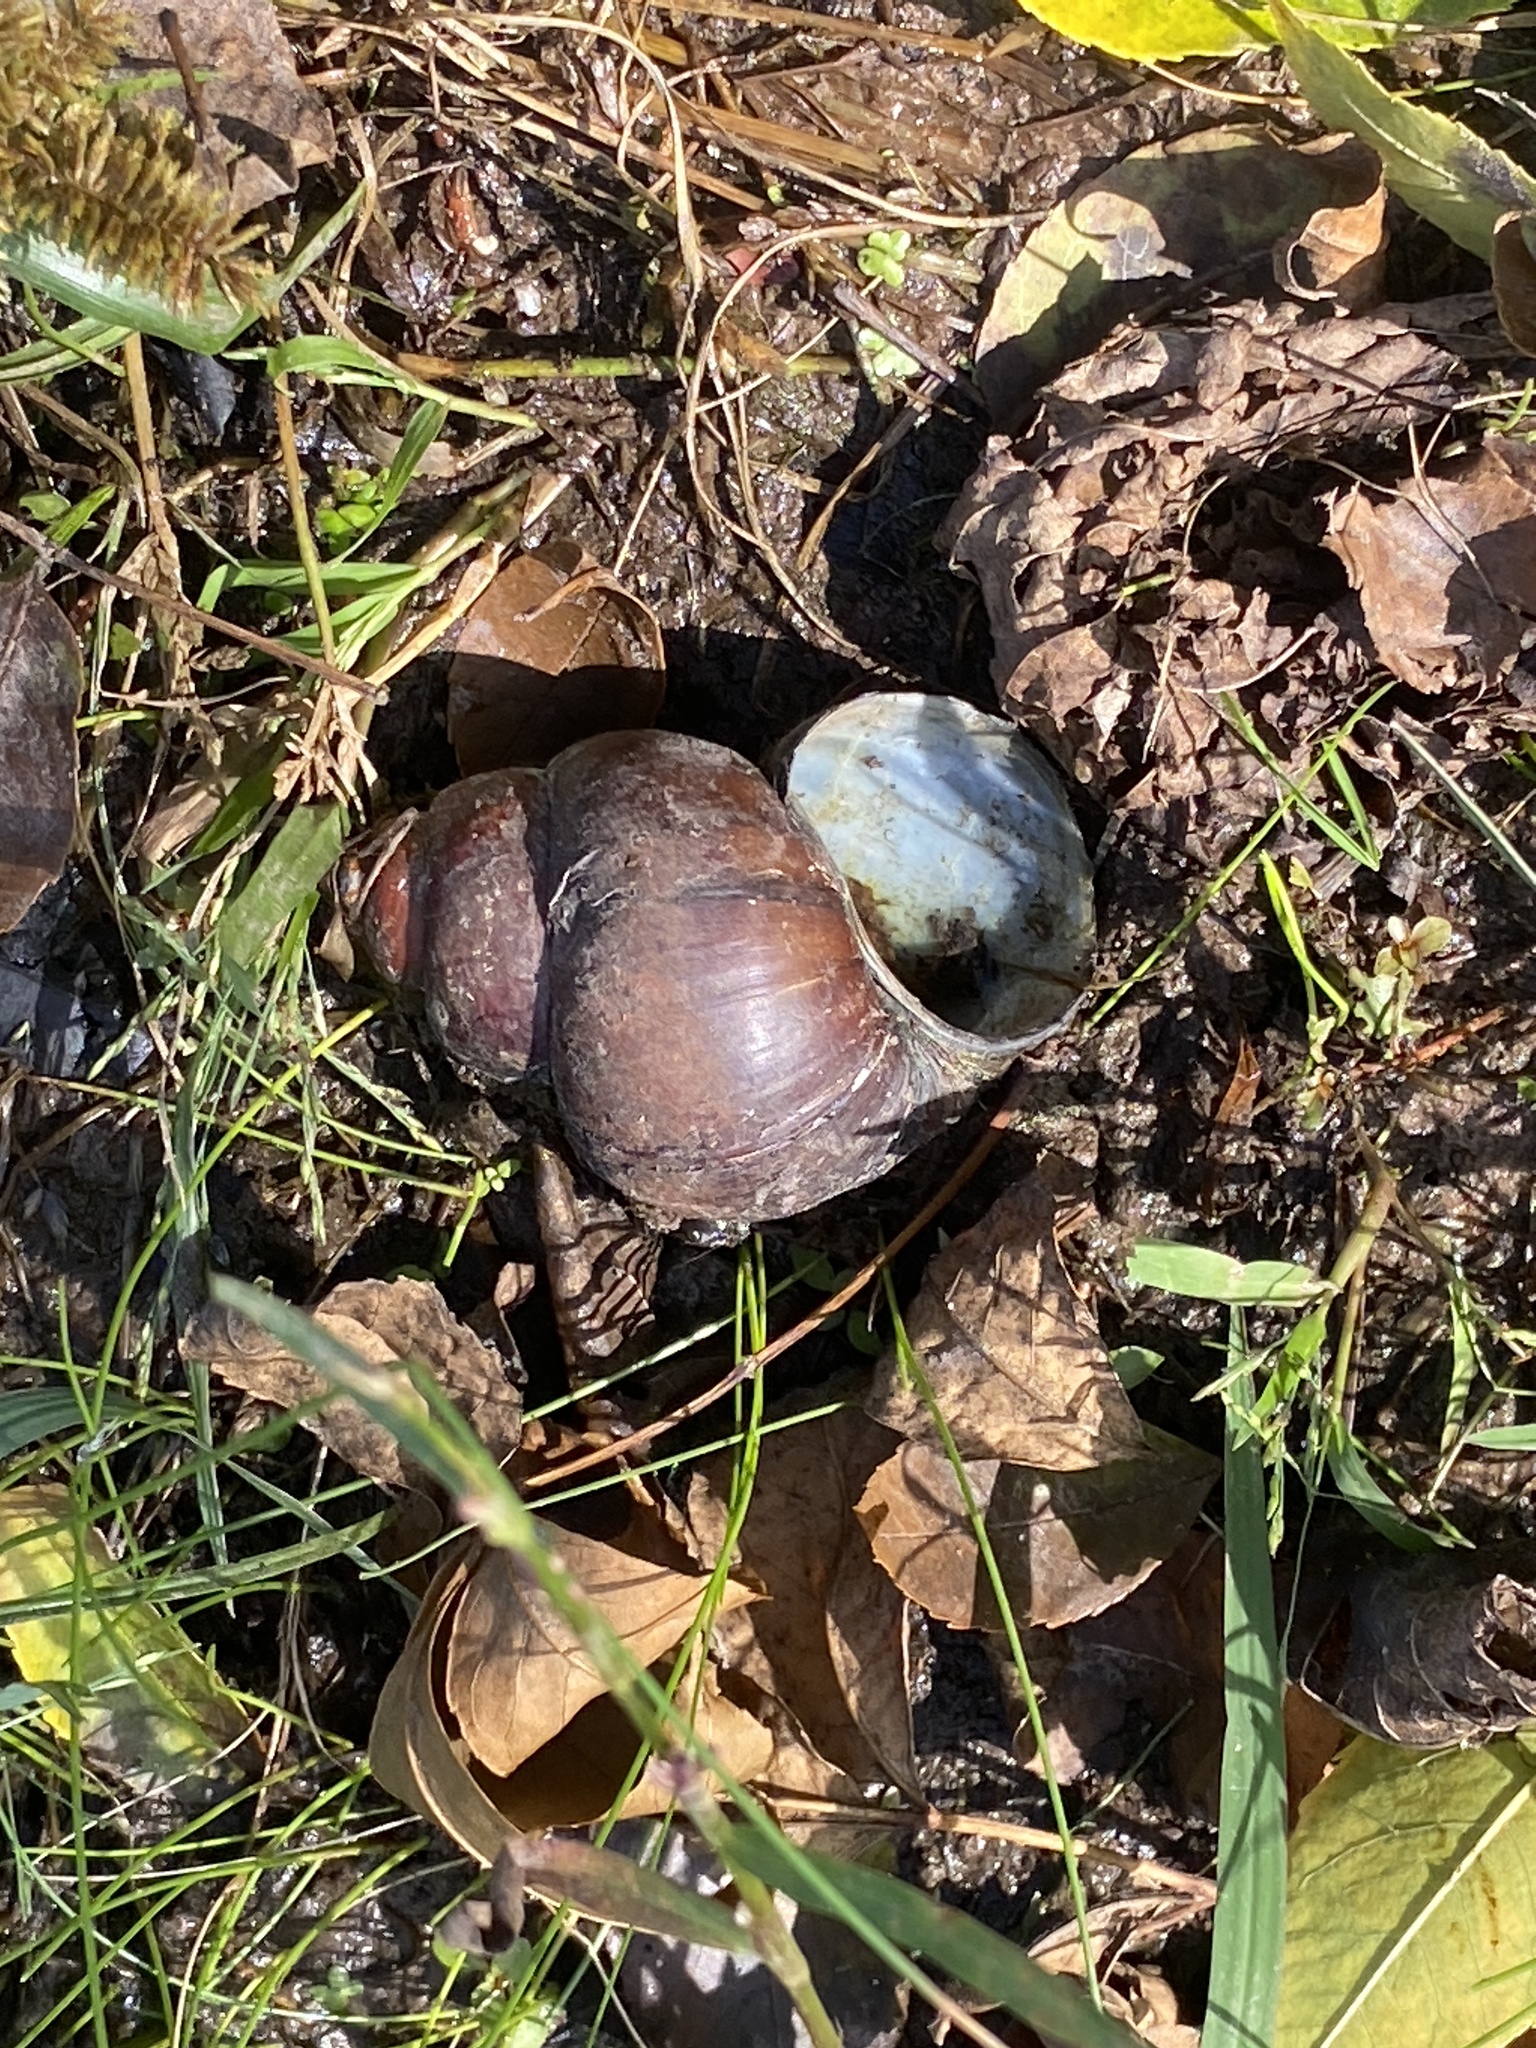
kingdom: Animalia
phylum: Mollusca
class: Gastropoda
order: Architaenioglossa
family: Viviparidae
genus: Cipangopaludina
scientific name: Cipangopaludina chinensis
